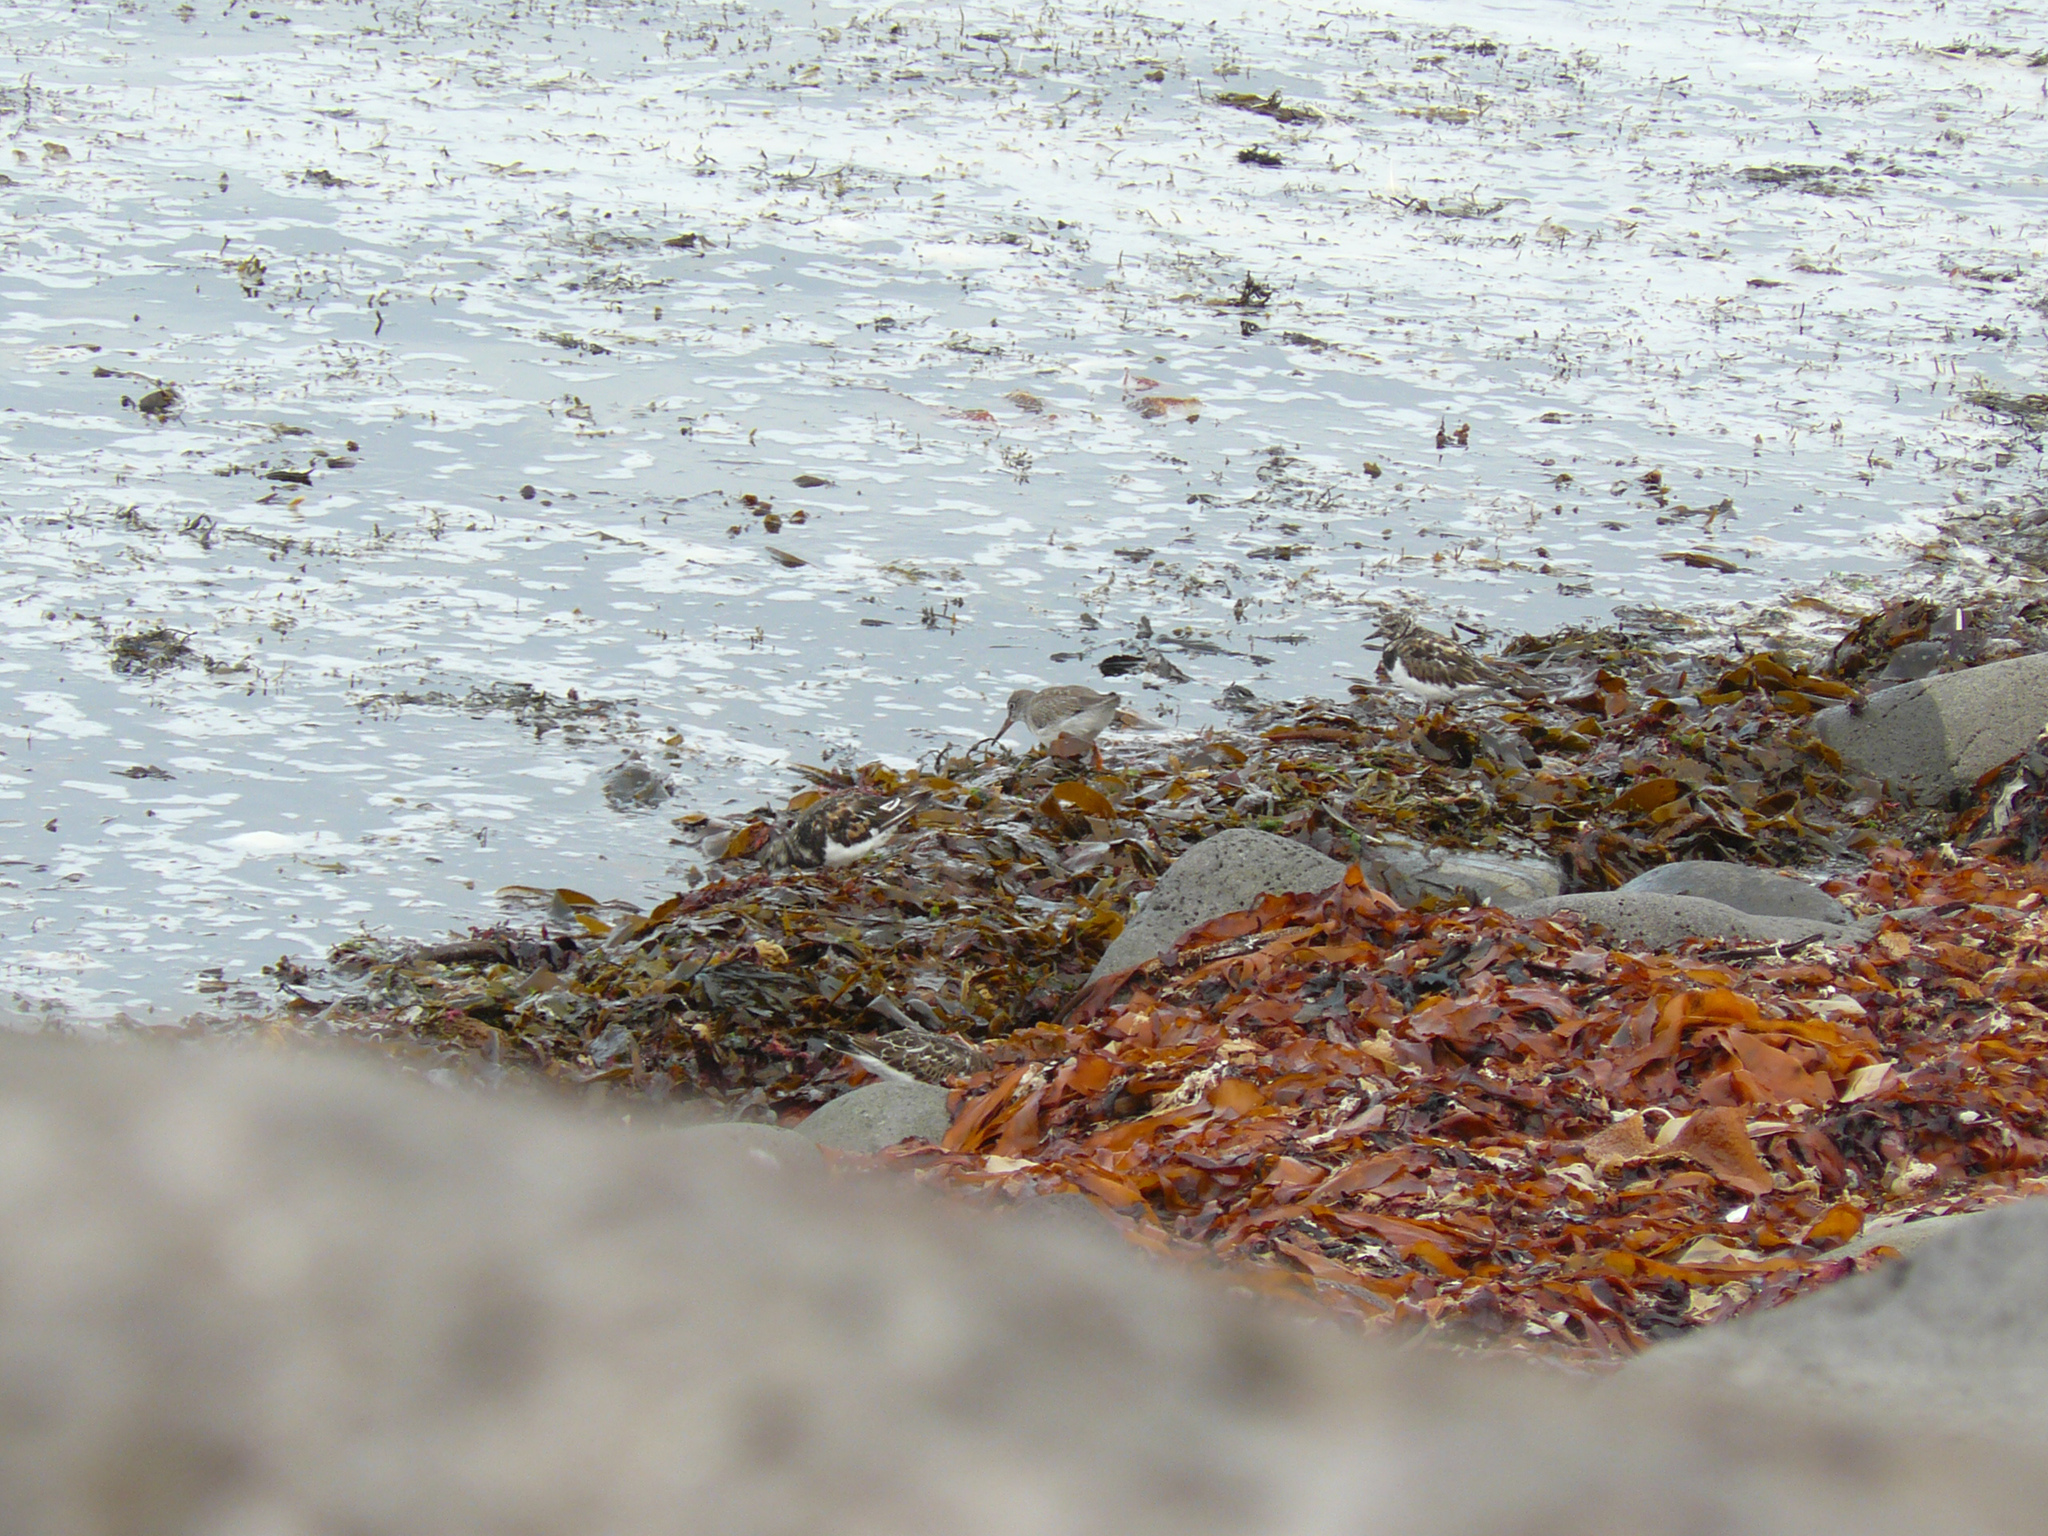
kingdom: Animalia
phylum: Chordata
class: Aves
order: Charadriiformes
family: Scolopacidae
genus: Arenaria
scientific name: Arenaria interpres
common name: Ruddy turnstone
